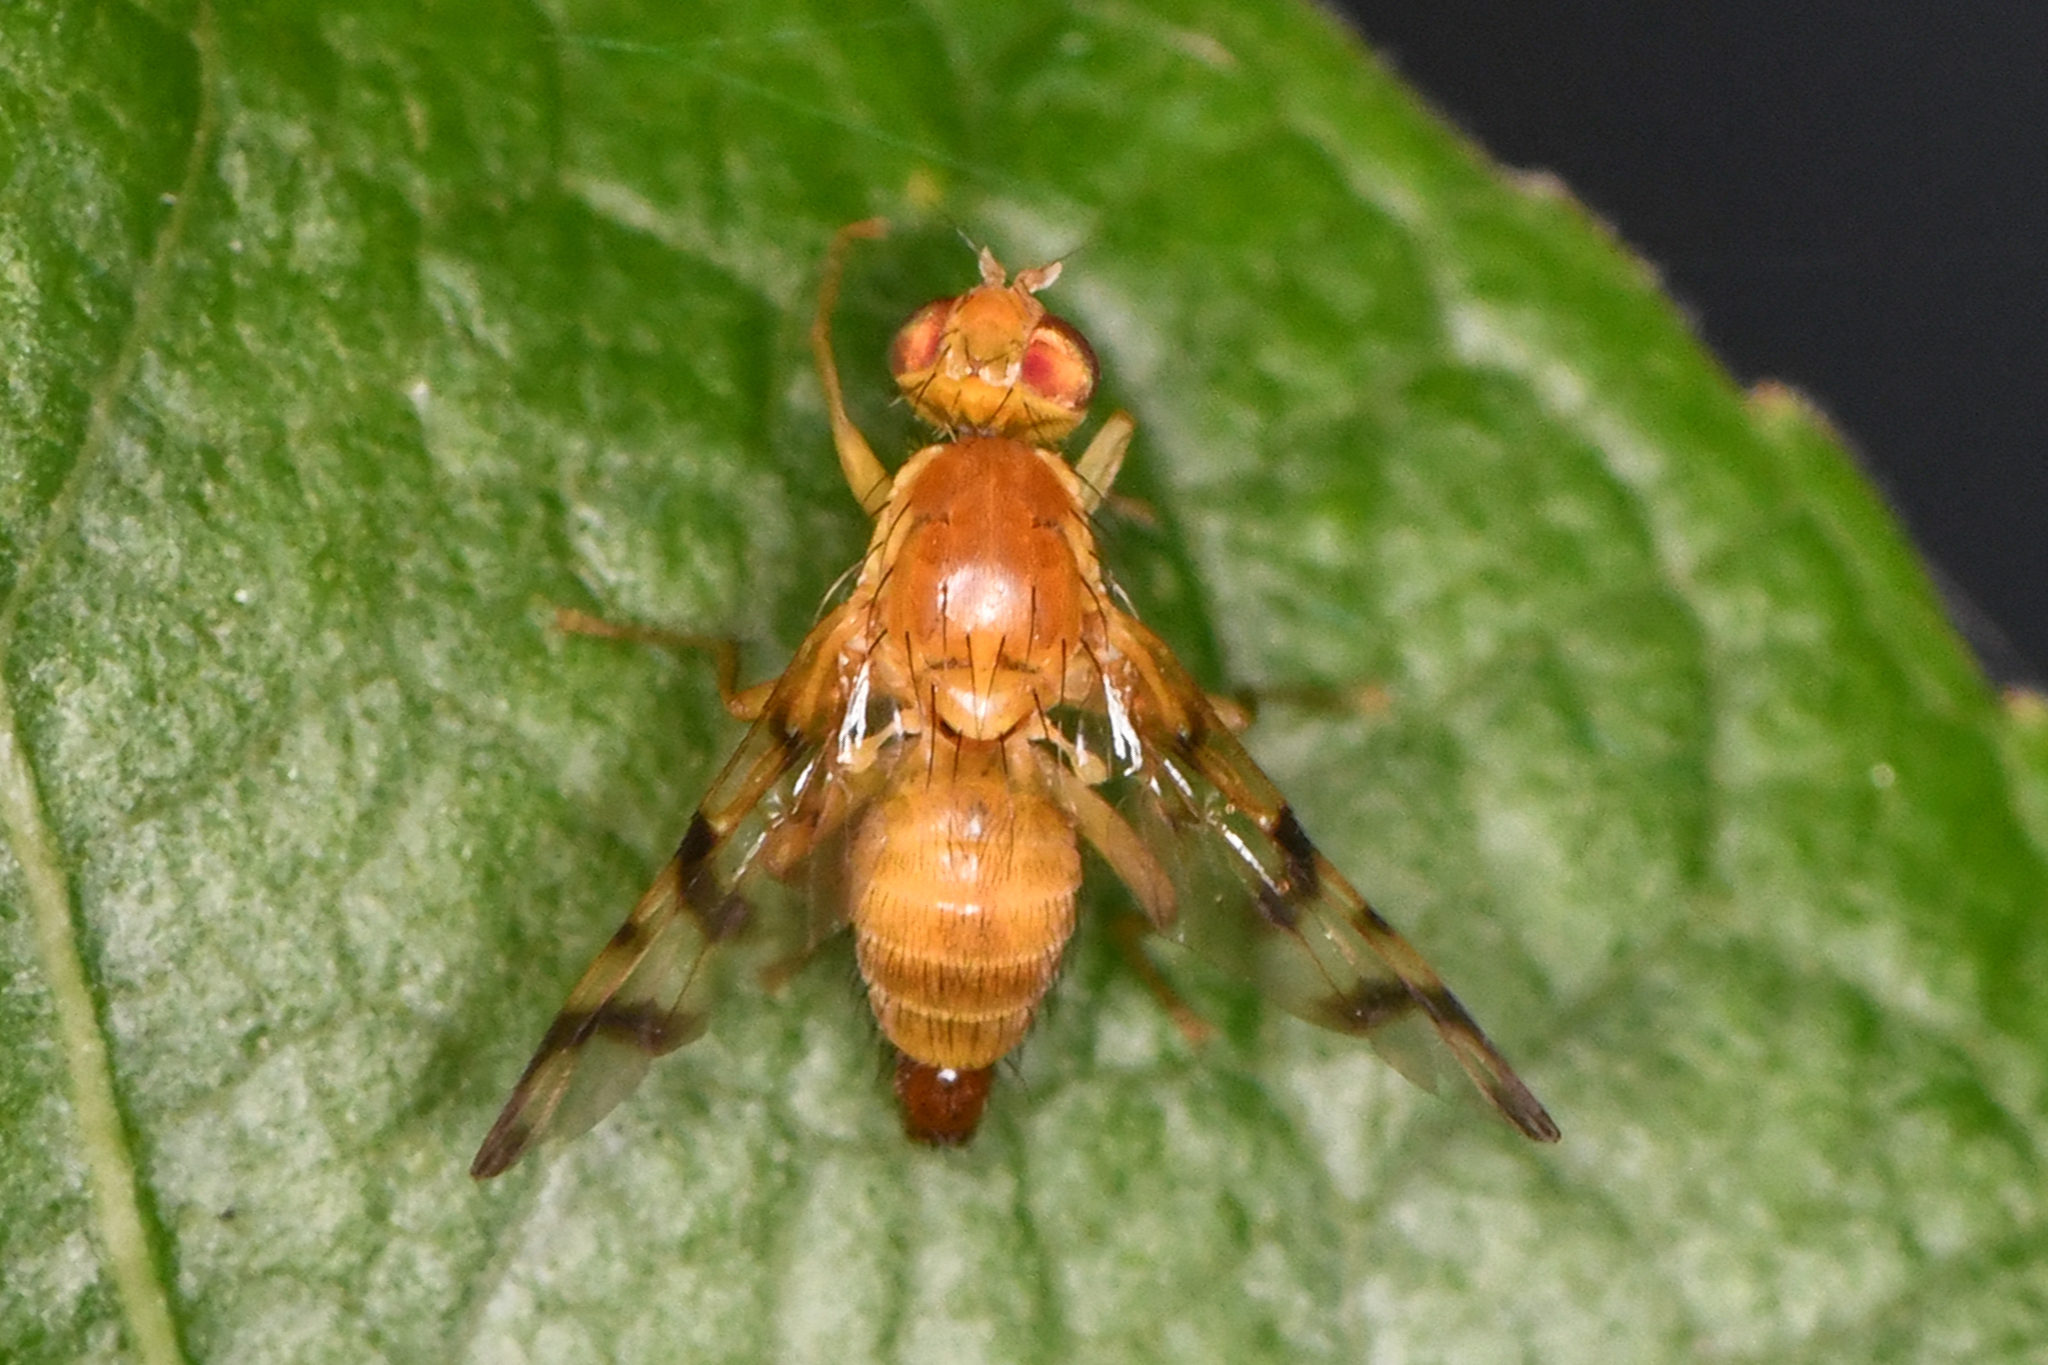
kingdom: Animalia
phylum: Arthropoda
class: Insecta
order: Diptera
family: Tephritidae
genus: Rhagoletis
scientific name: Rhagoletis basiola
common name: Rose hip fly
